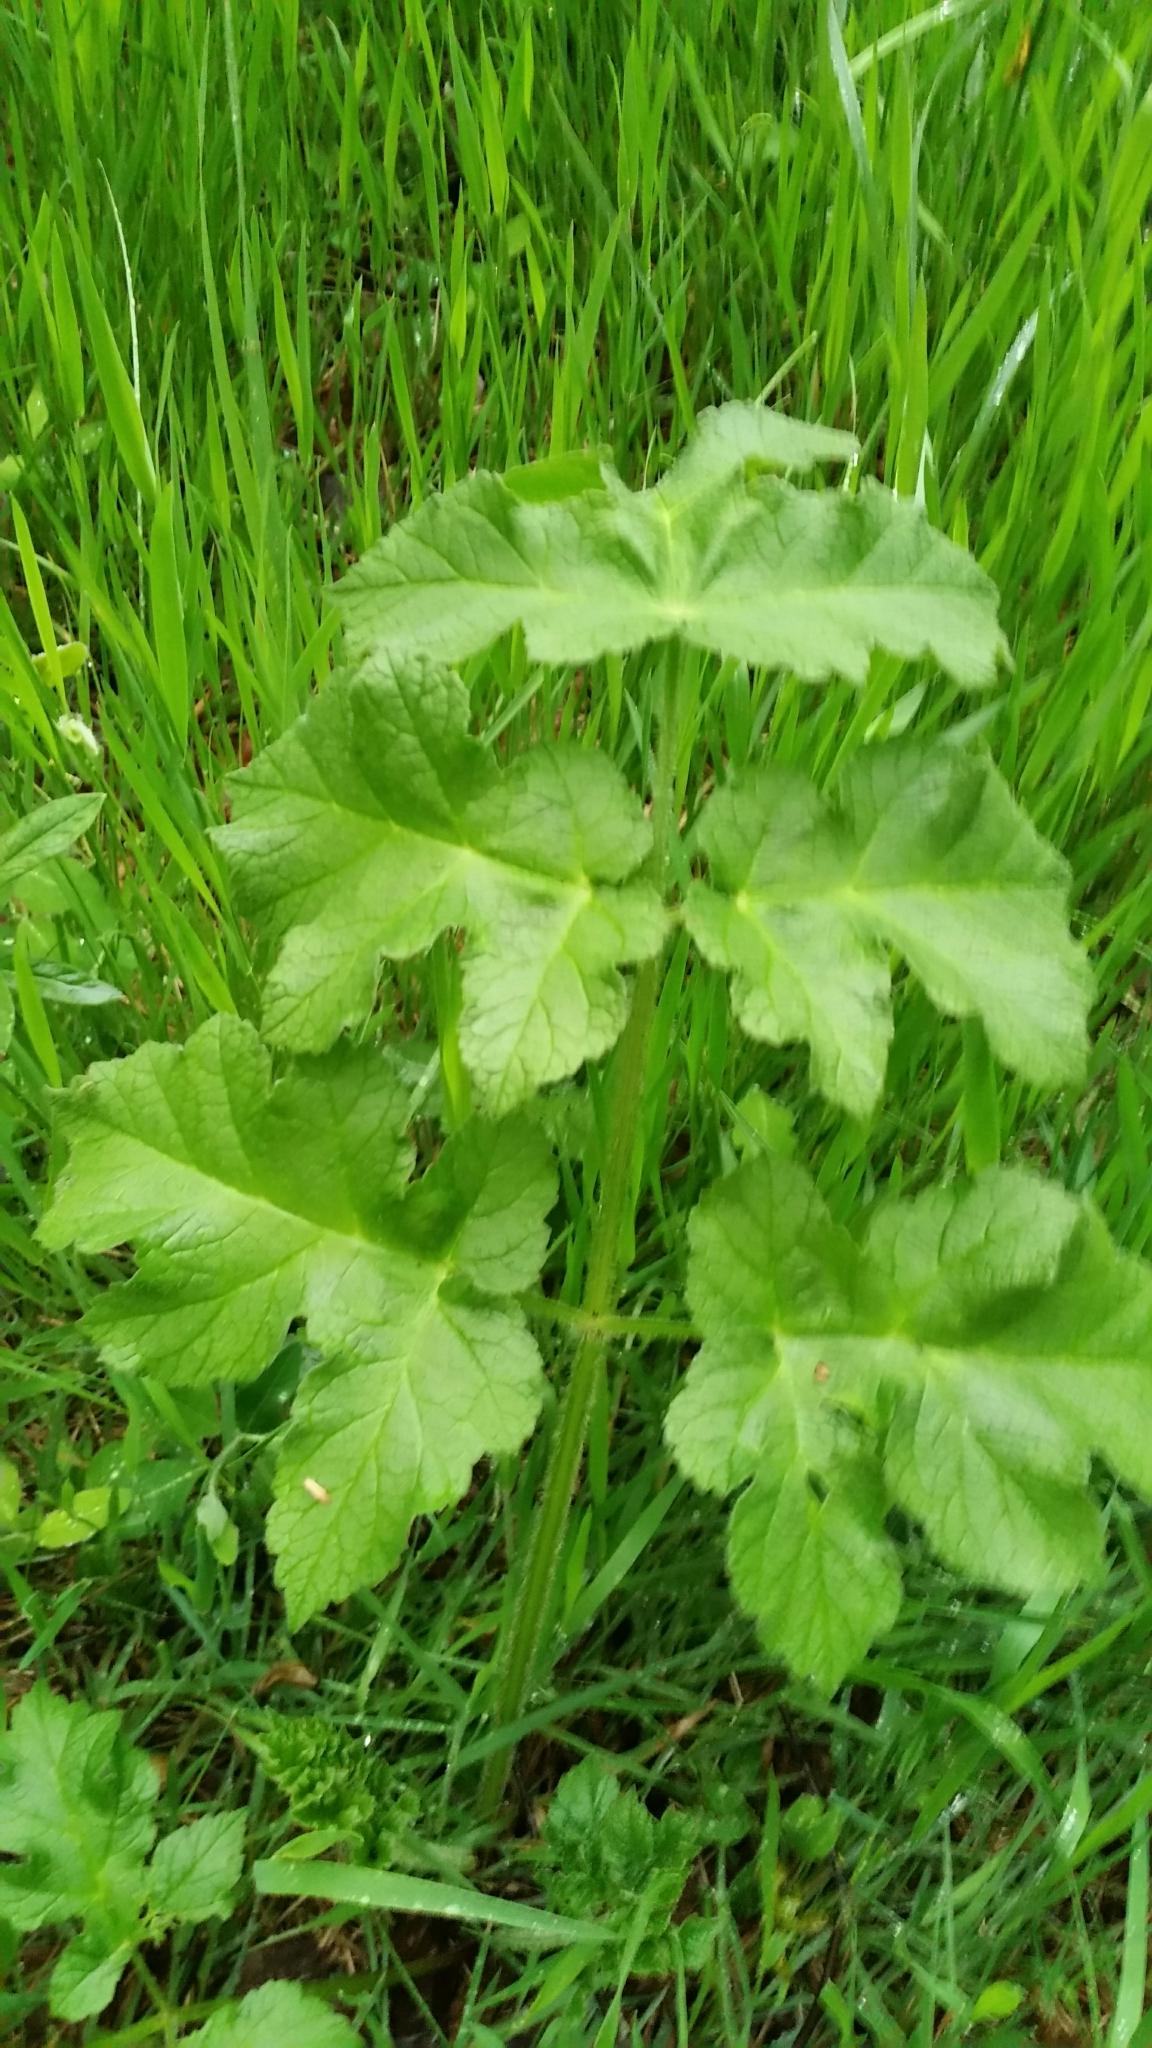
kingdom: Plantae
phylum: Tracheophyta
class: Magnoliopsida
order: Apiales
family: Apiaceae
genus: Heracleum
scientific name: Heracleum sphondylium
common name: Hogweed
